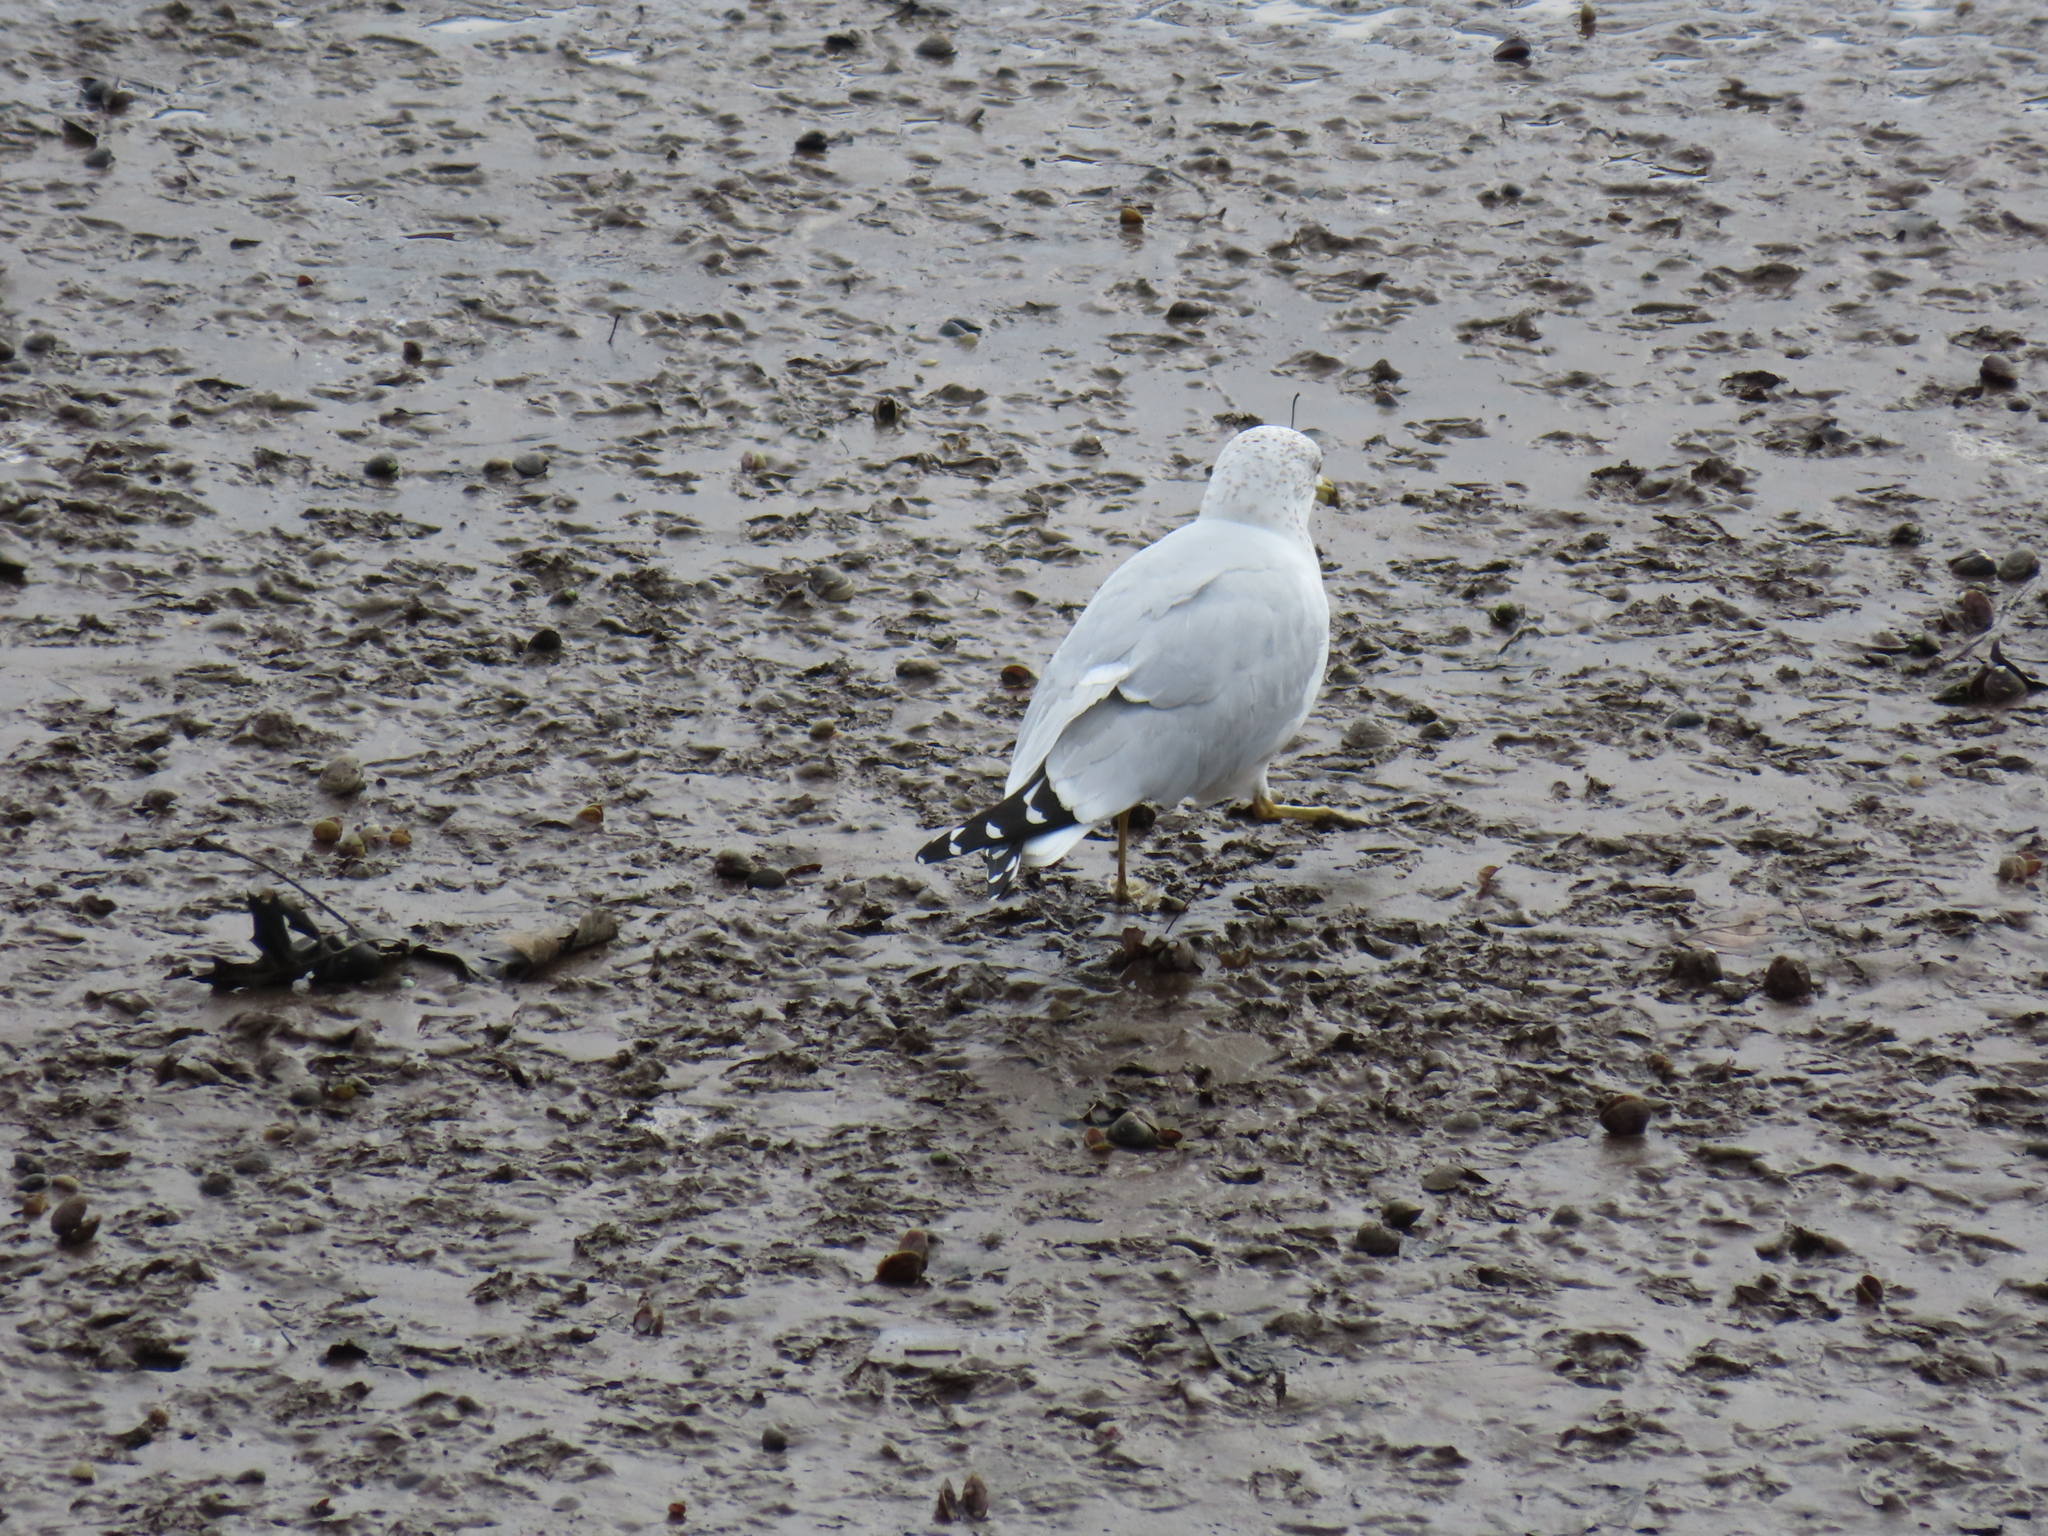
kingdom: Animalia
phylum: Chordata
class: Aves
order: Charadriiformes
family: Laridae
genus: Larus
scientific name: Larus delawarensis
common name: Ring-billed gull
